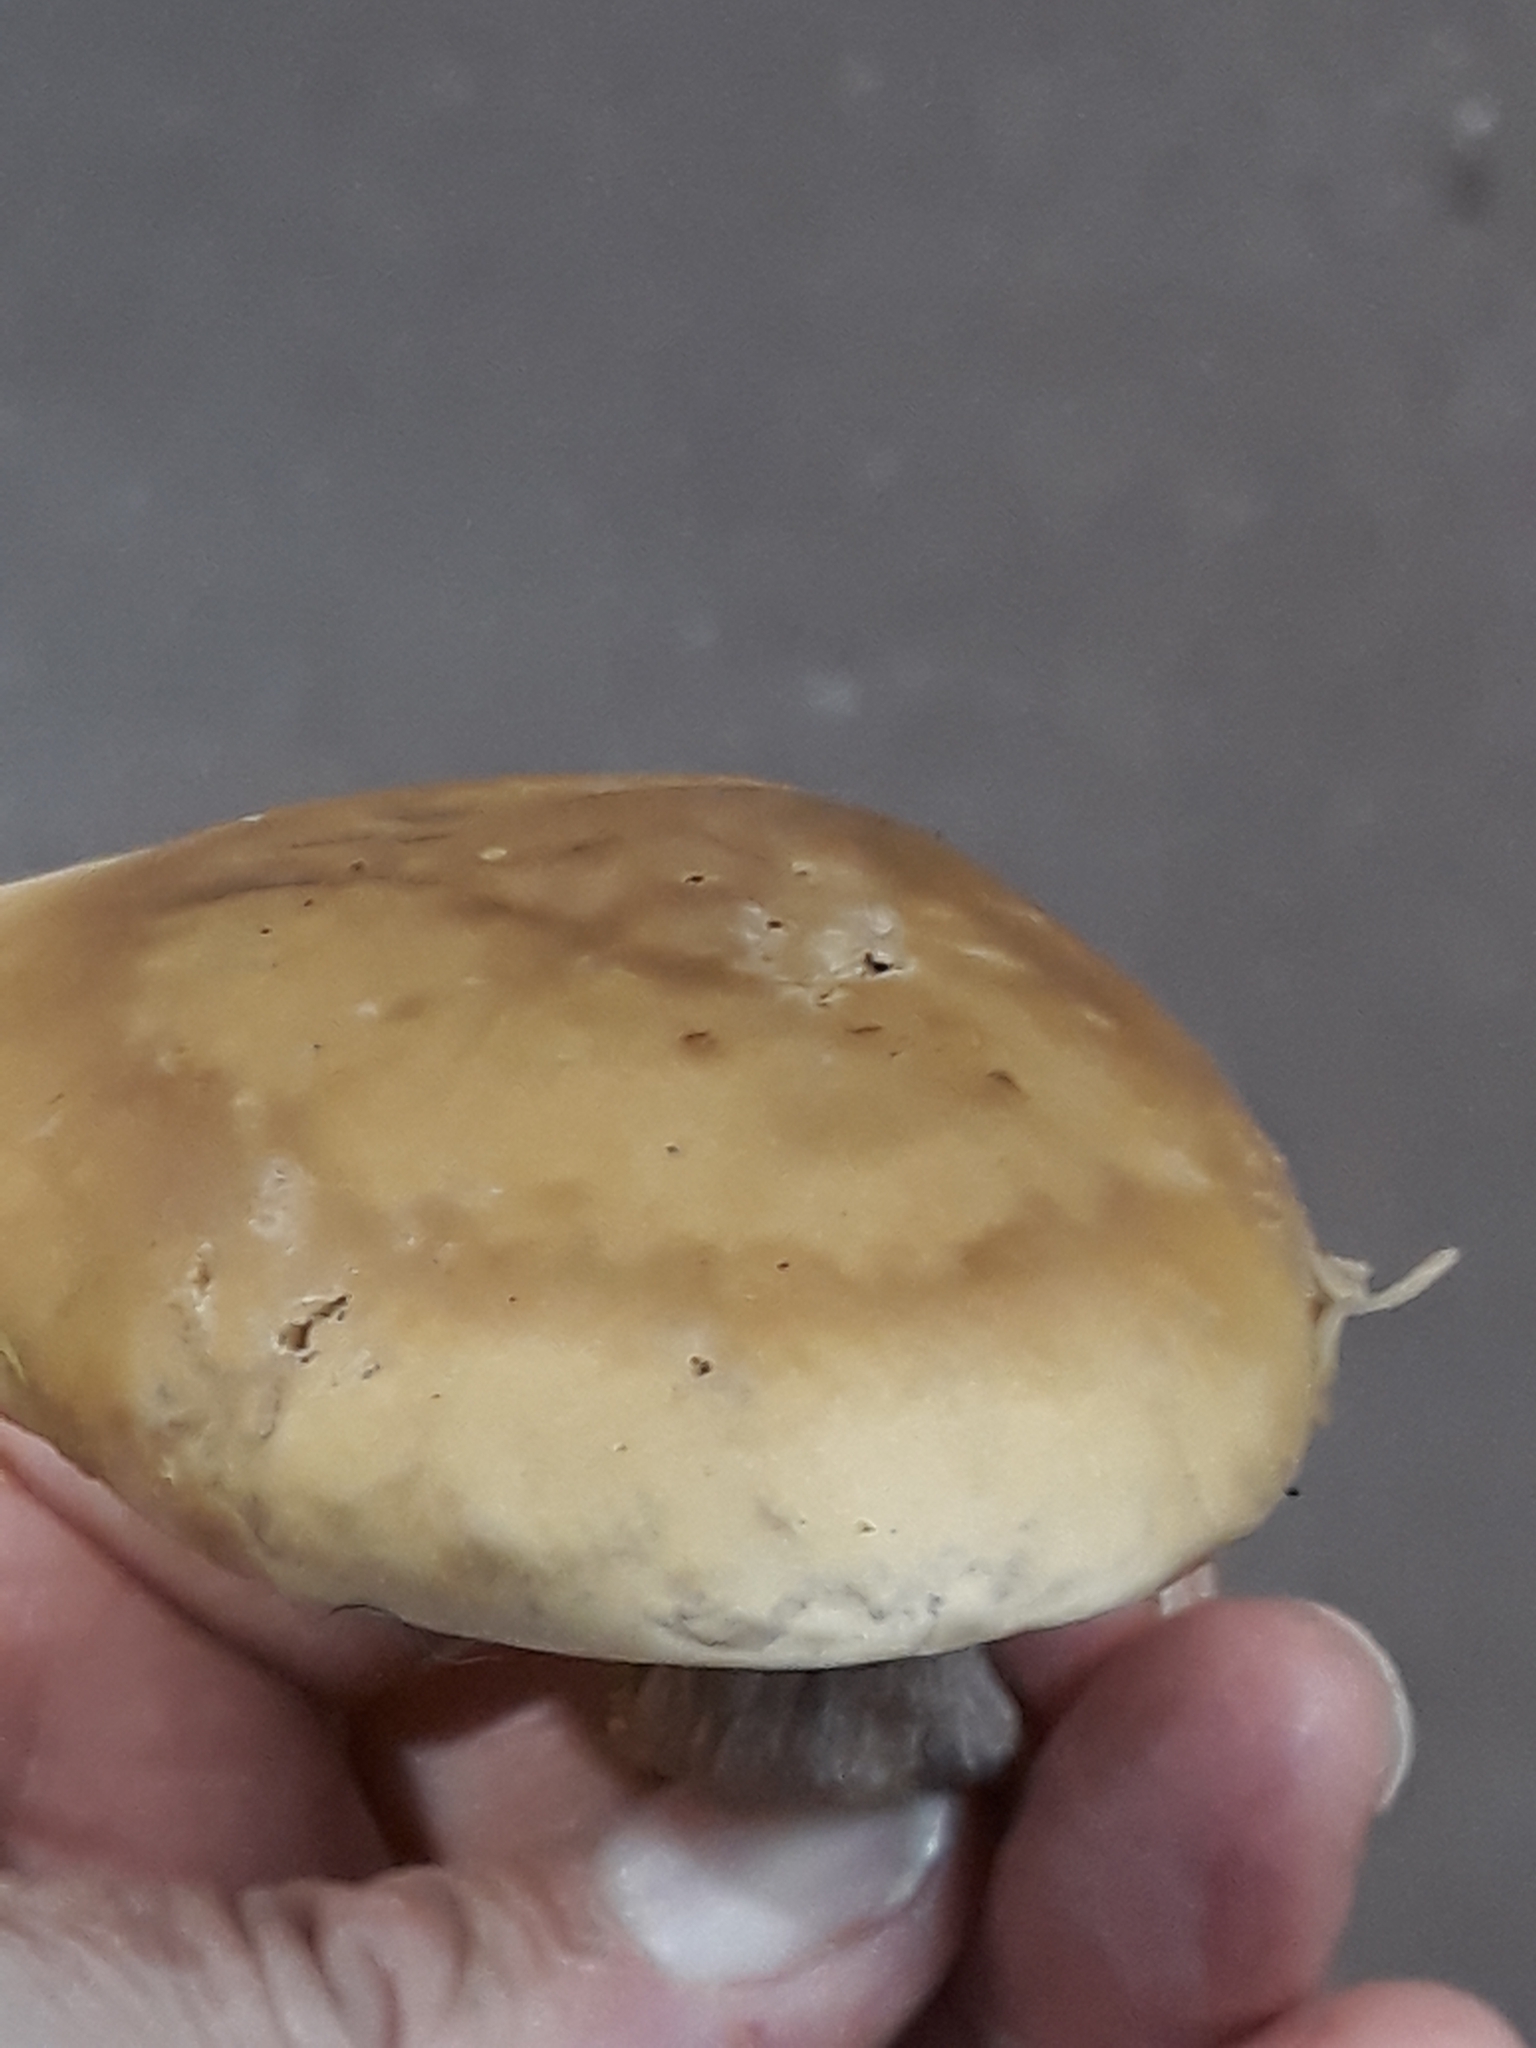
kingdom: Fungi
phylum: Basidiomycota
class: Agaricomycetes
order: Agaricales
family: Omphalotaceae
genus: Collybiopsis
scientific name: Collybiopsis peronata
